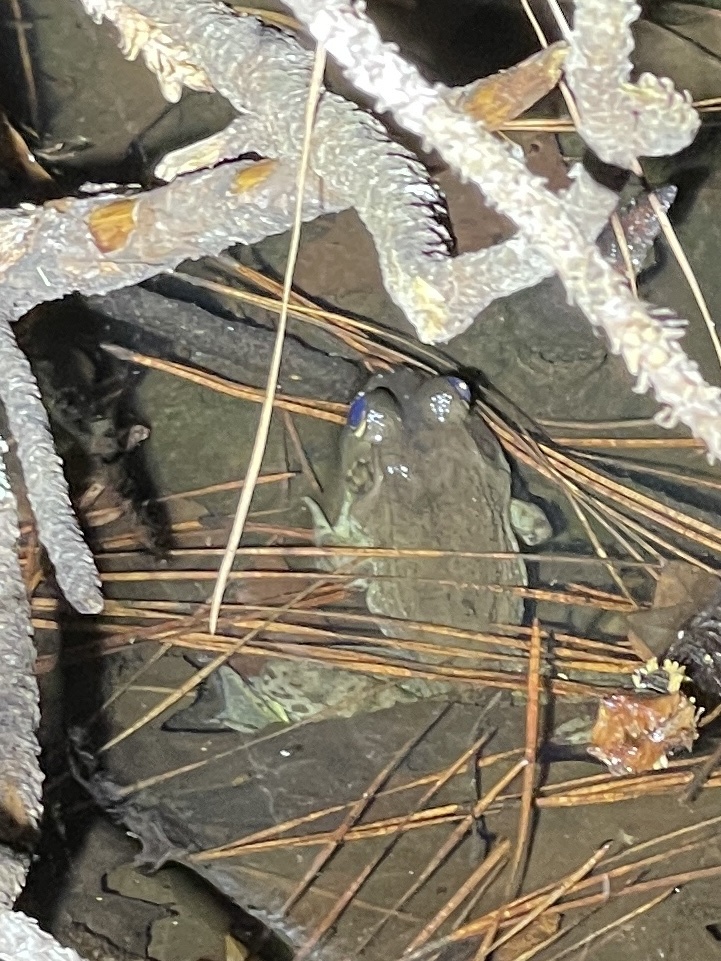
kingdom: Animalia
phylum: Chordata
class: Amphibia
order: Anura
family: Ranidae
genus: Lithobates
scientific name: Lithobates clamitans
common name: Green frog
